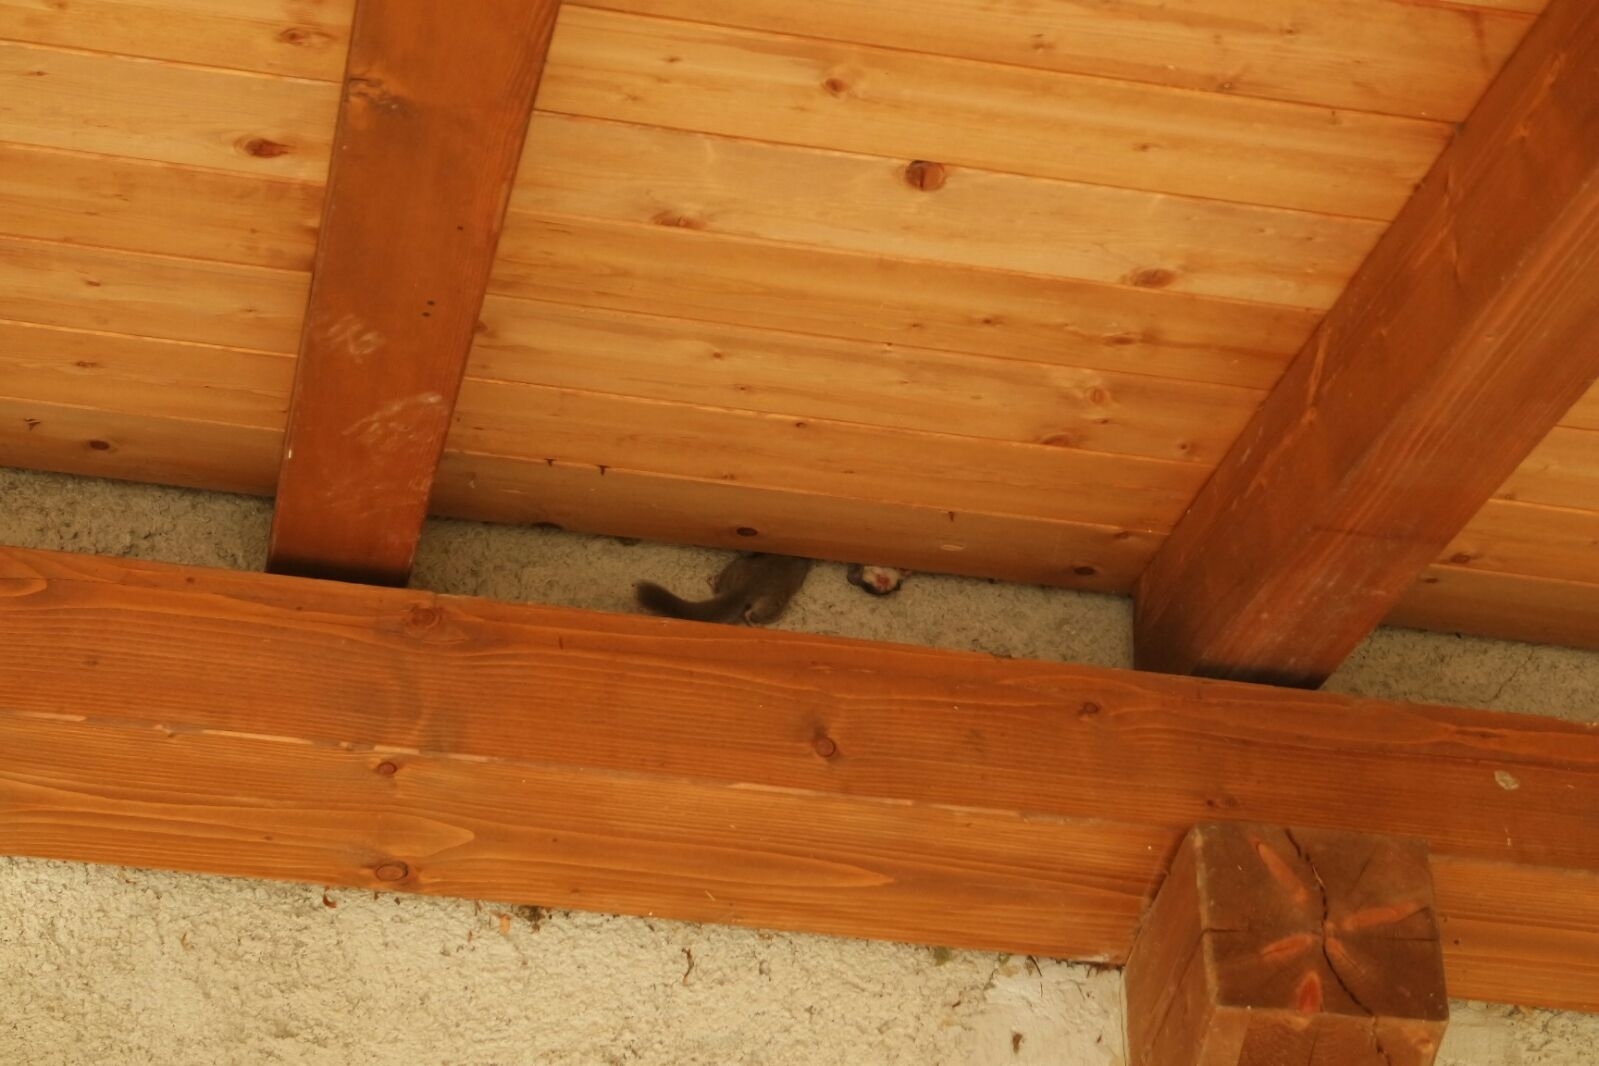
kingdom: Animalia
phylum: Chordata
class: Mammalia
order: Rodentia
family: Gliridae
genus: Glis
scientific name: Glis glis
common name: Fat dormouse
